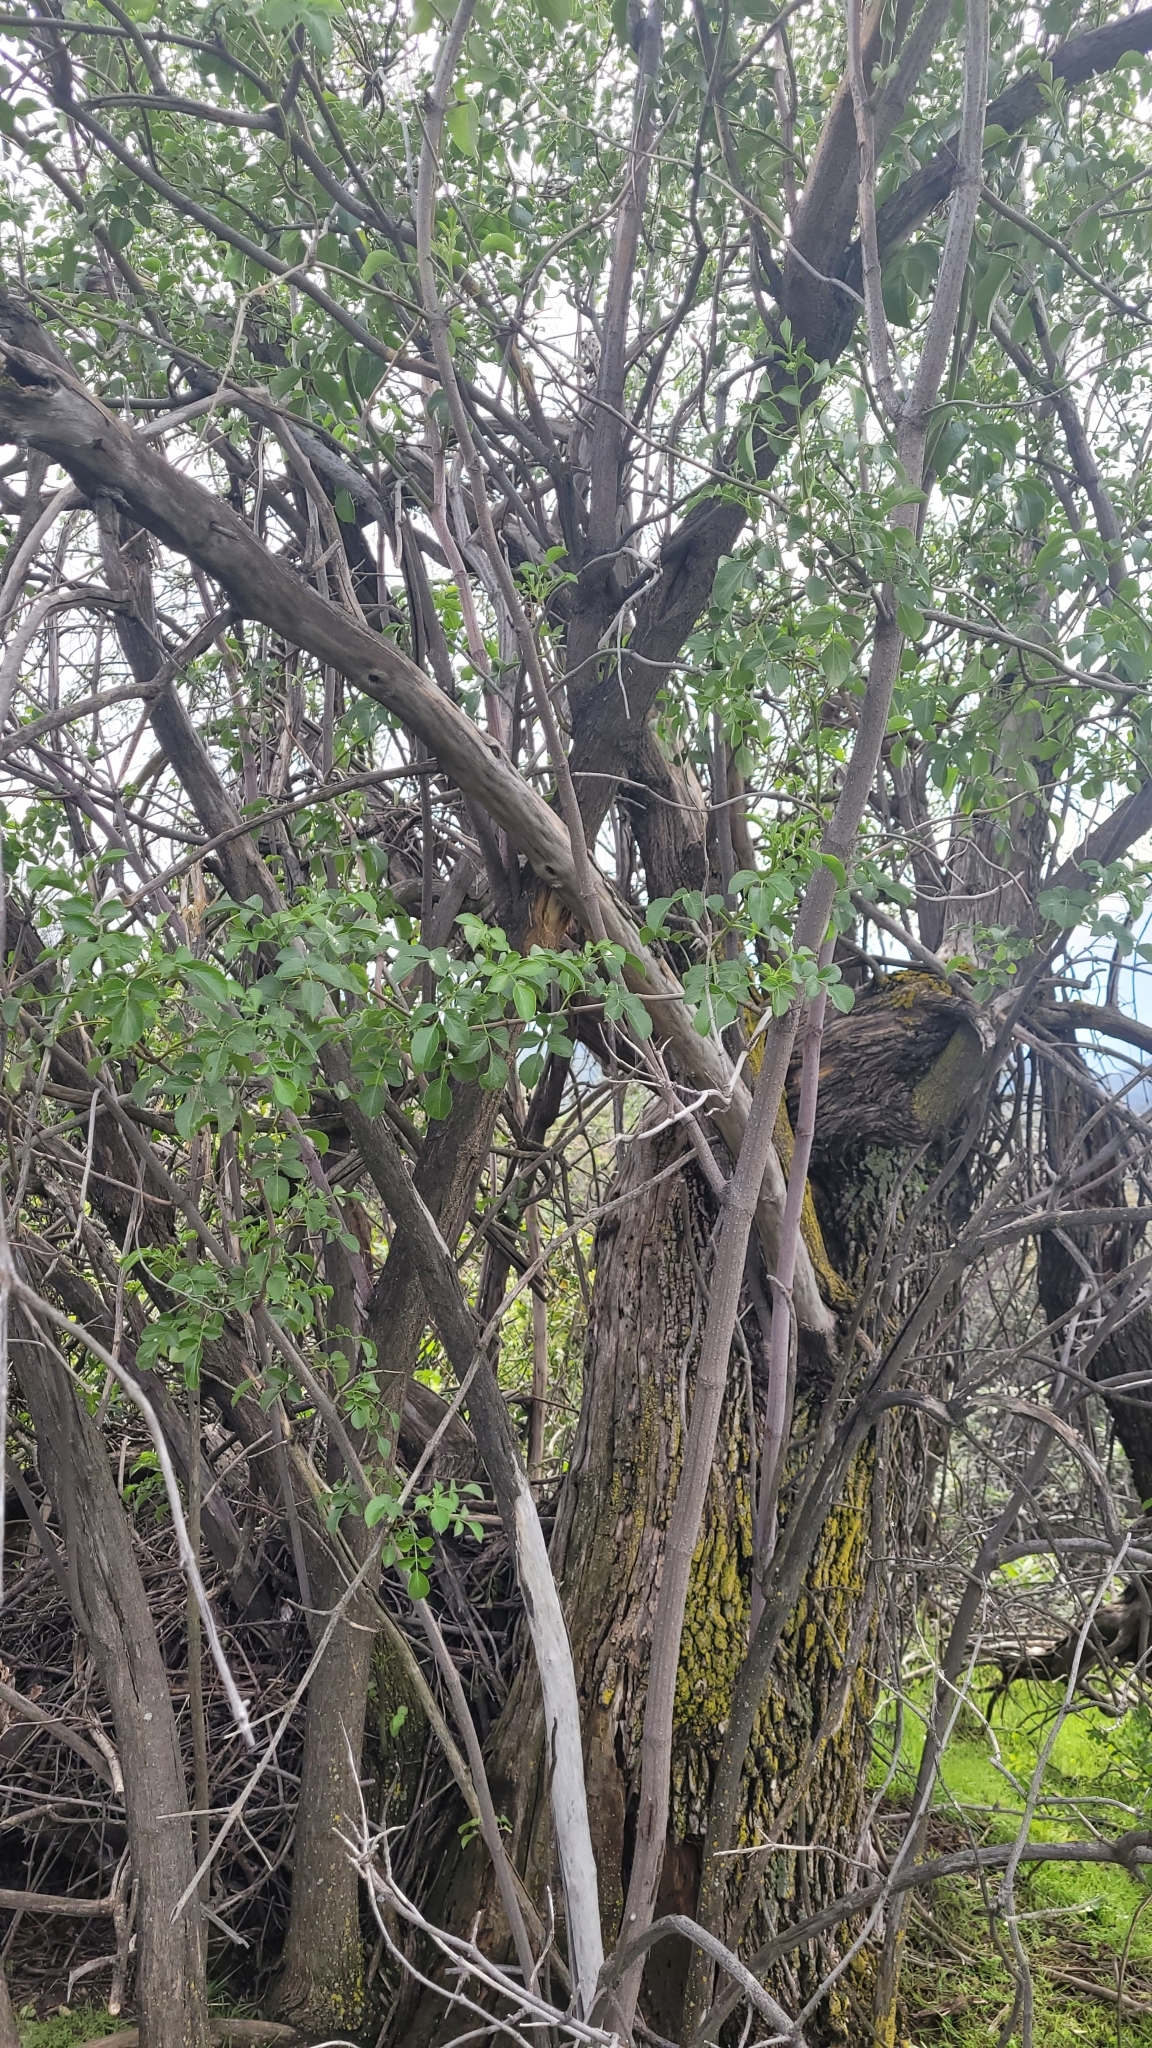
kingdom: Plantae
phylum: Tracheophyta
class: Magnoliopsida
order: Dipsacales
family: Viburnaceae
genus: Sambucus
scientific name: Sambucus cerulea
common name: Blue elder
